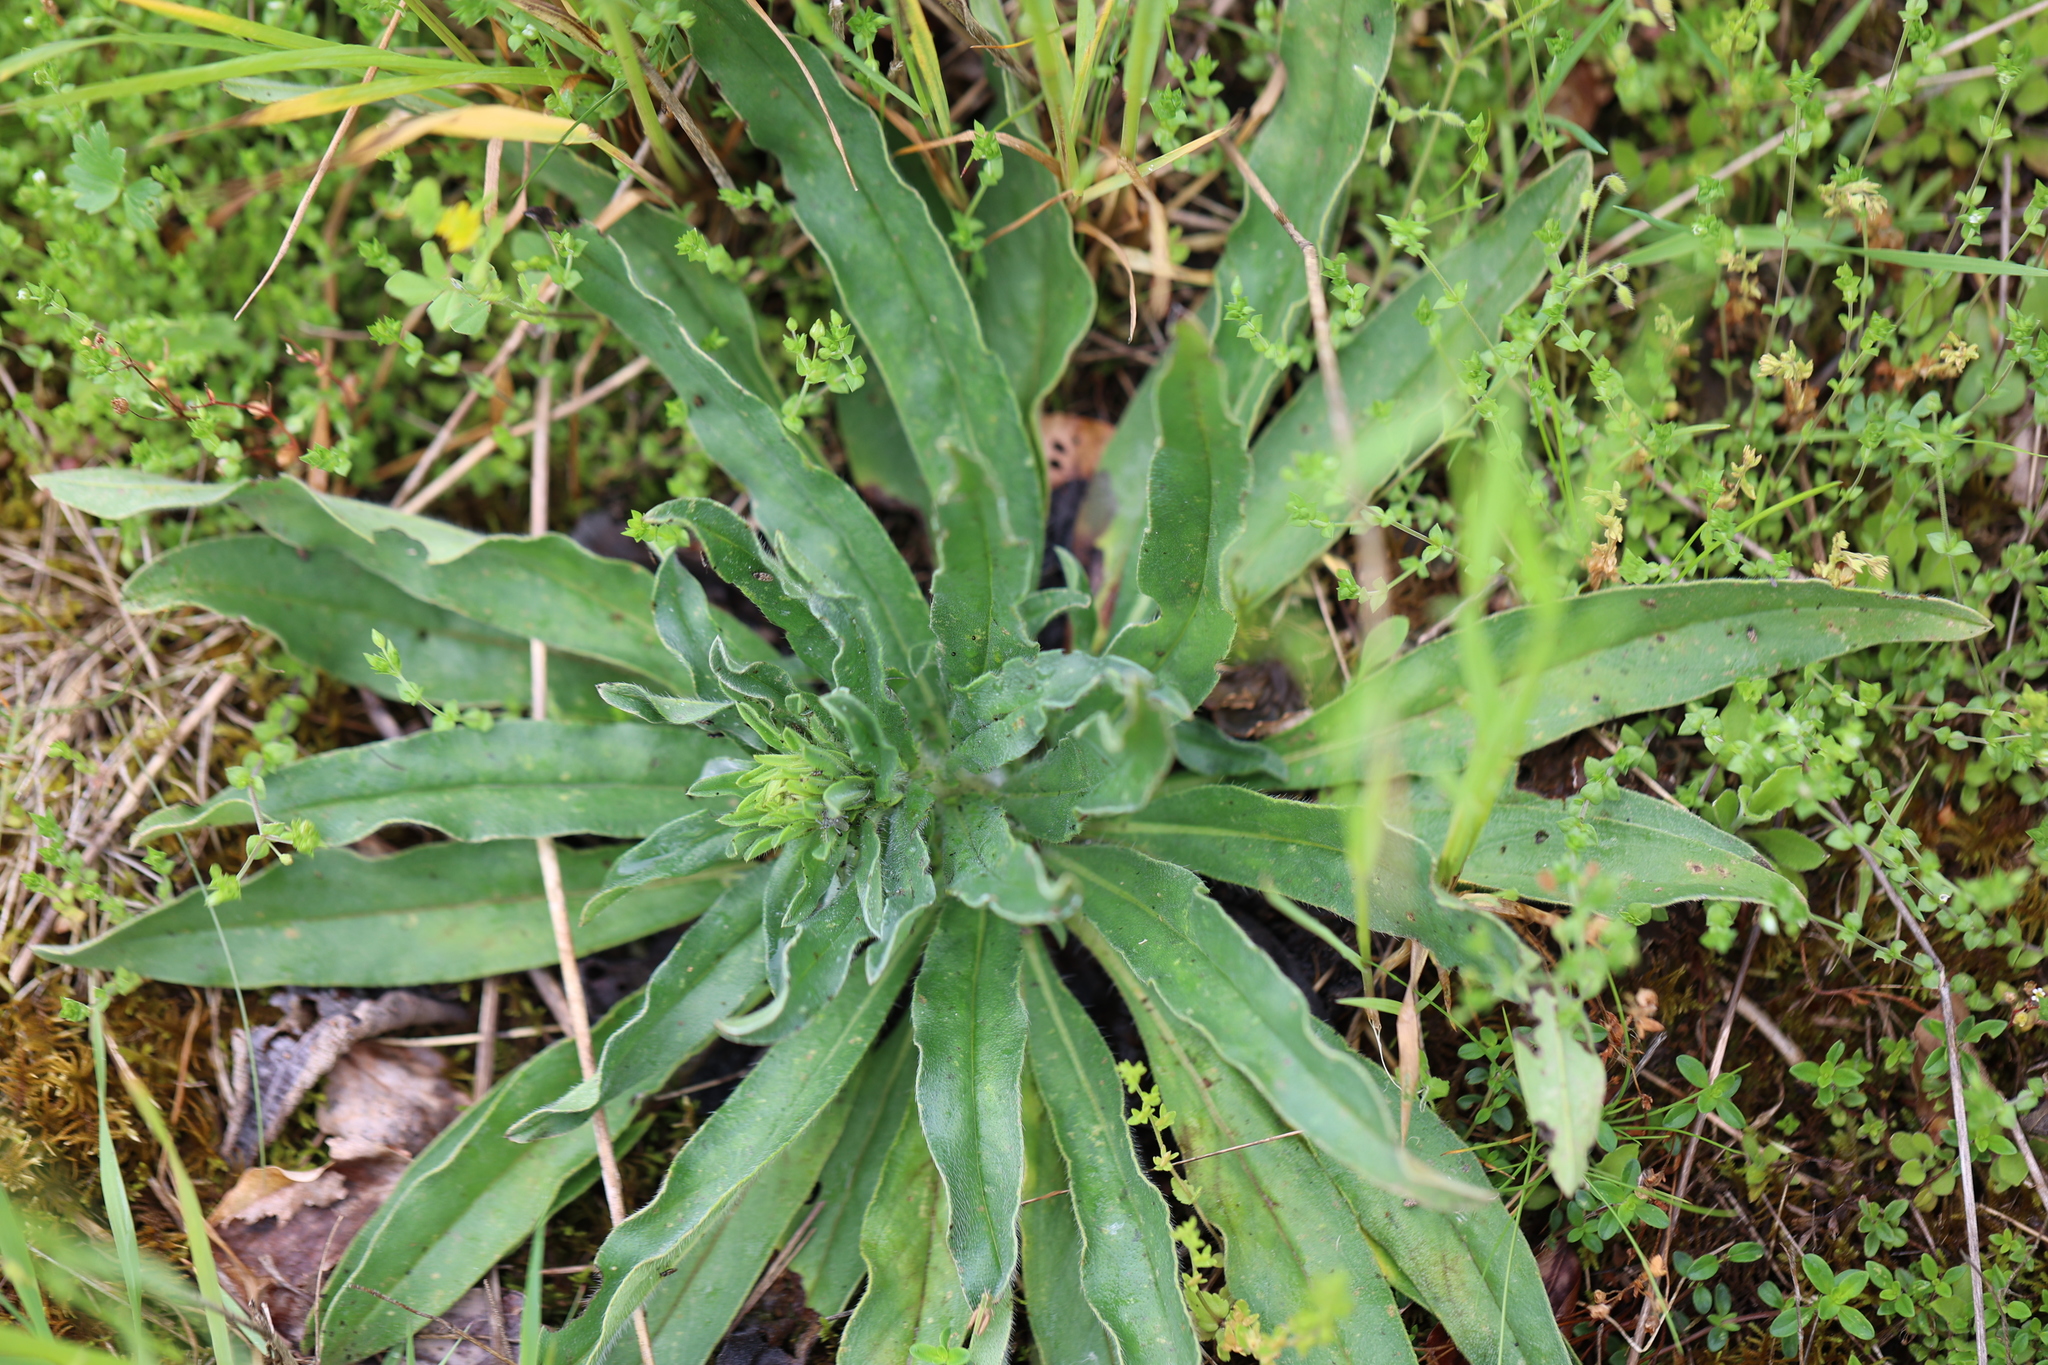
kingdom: Plantae
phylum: Tracheophyta
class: Magnoliopsida
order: Boraginales
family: Boraginaceae
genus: Echium
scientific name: Echium vulgare
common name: Common viper's bugloss
